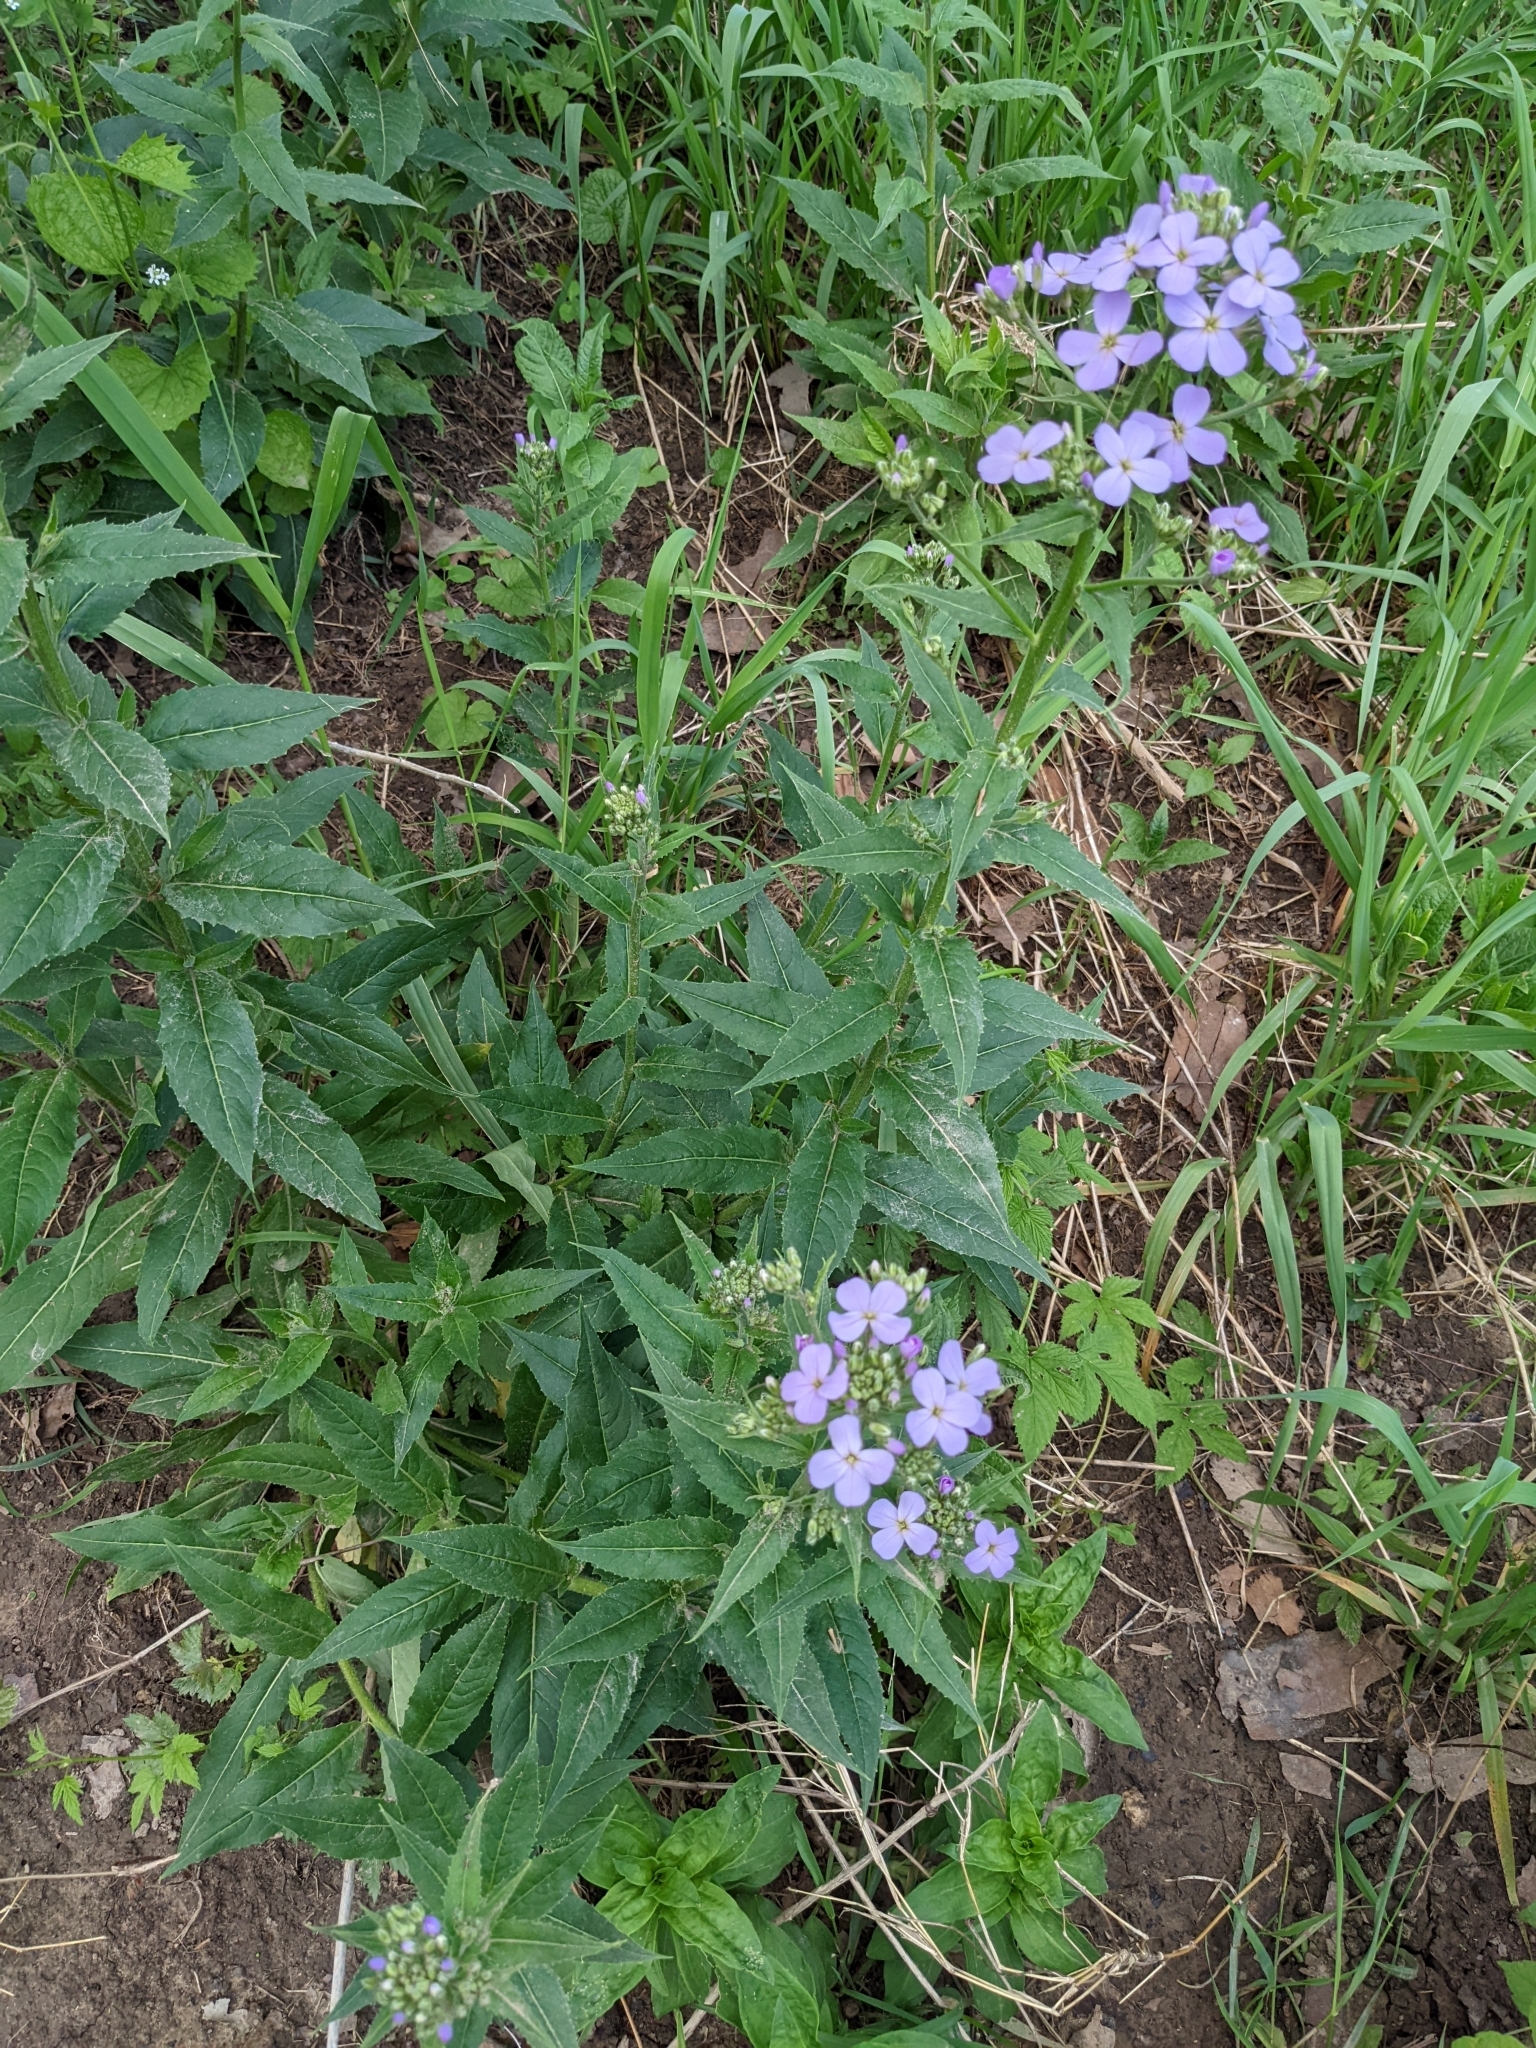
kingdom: Plantae
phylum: Tracheophyta
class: Magnoliopsida
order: Brassicales
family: Brassicaceae
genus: Hesperis
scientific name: Hesperis matronalis
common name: Dame's-violet
